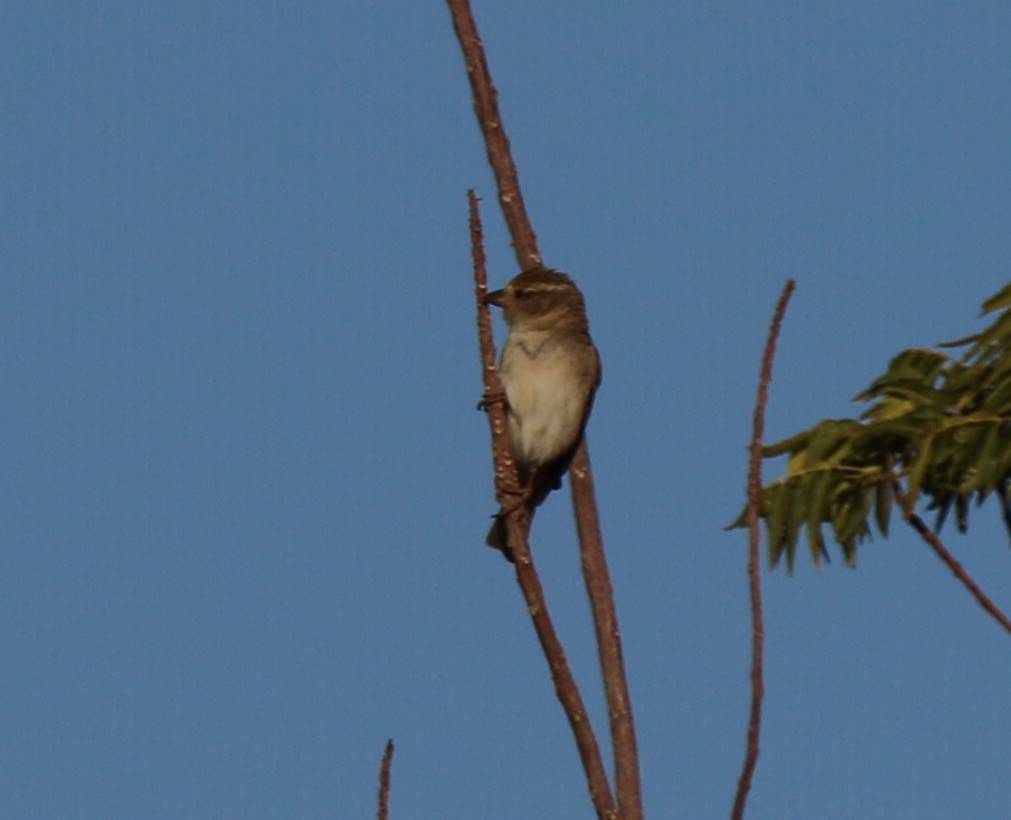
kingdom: Animalia
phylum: Chordata
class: Aves
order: Passeriformes
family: Passeridae
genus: Passer
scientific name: Passer domesticus
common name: House sparrow
